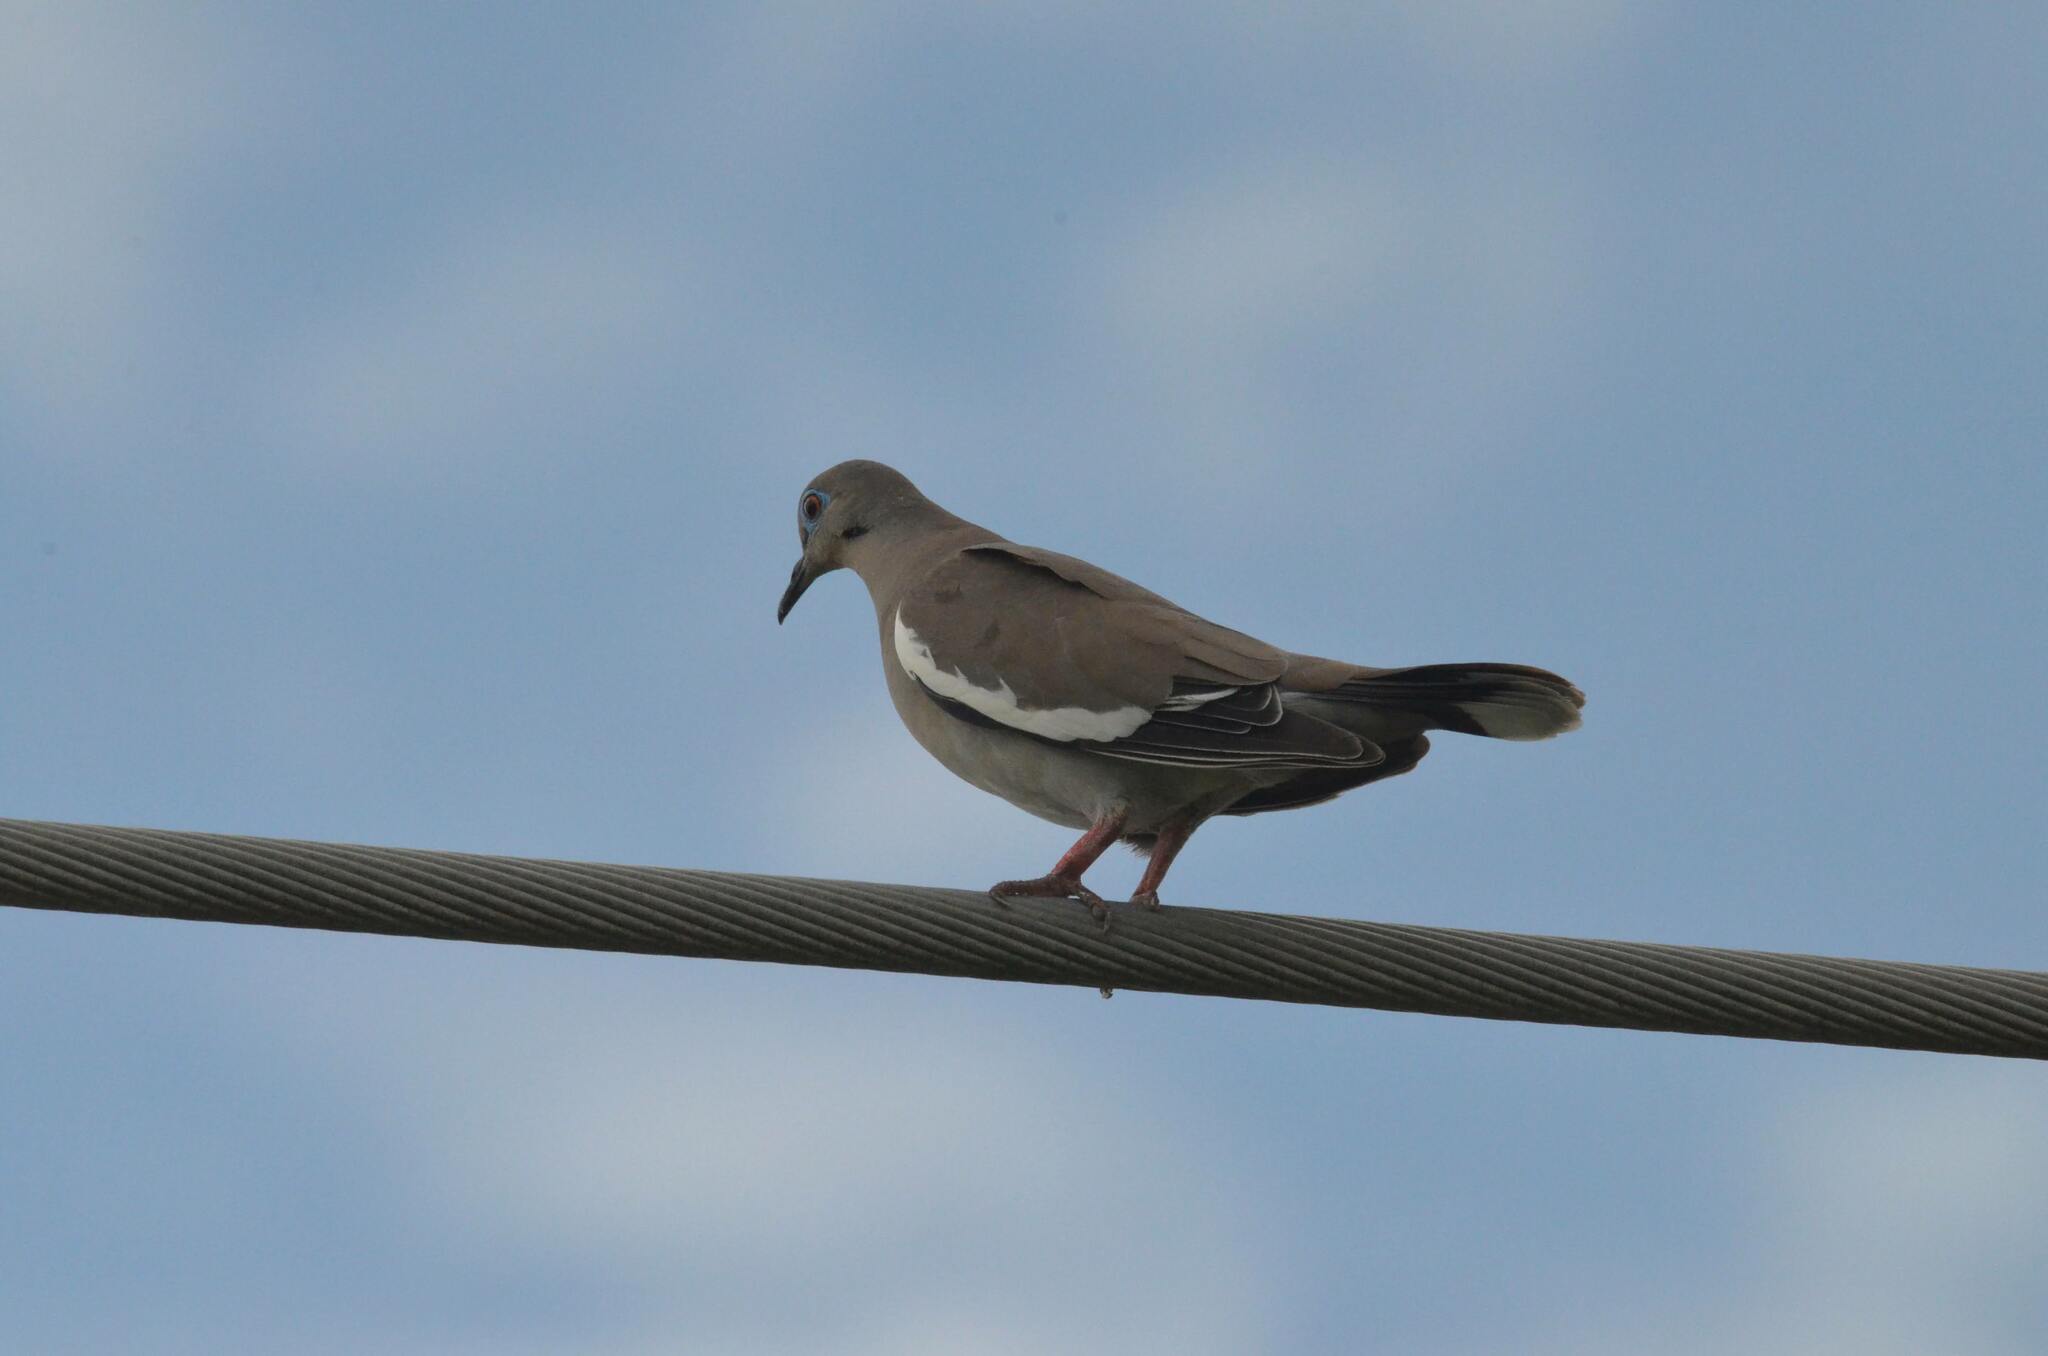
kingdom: Animalia
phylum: Chordata
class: Aves
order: Columbiformes
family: Columbidae
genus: Zenaida
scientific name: Zenaida asiatica
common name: White-winged dove
